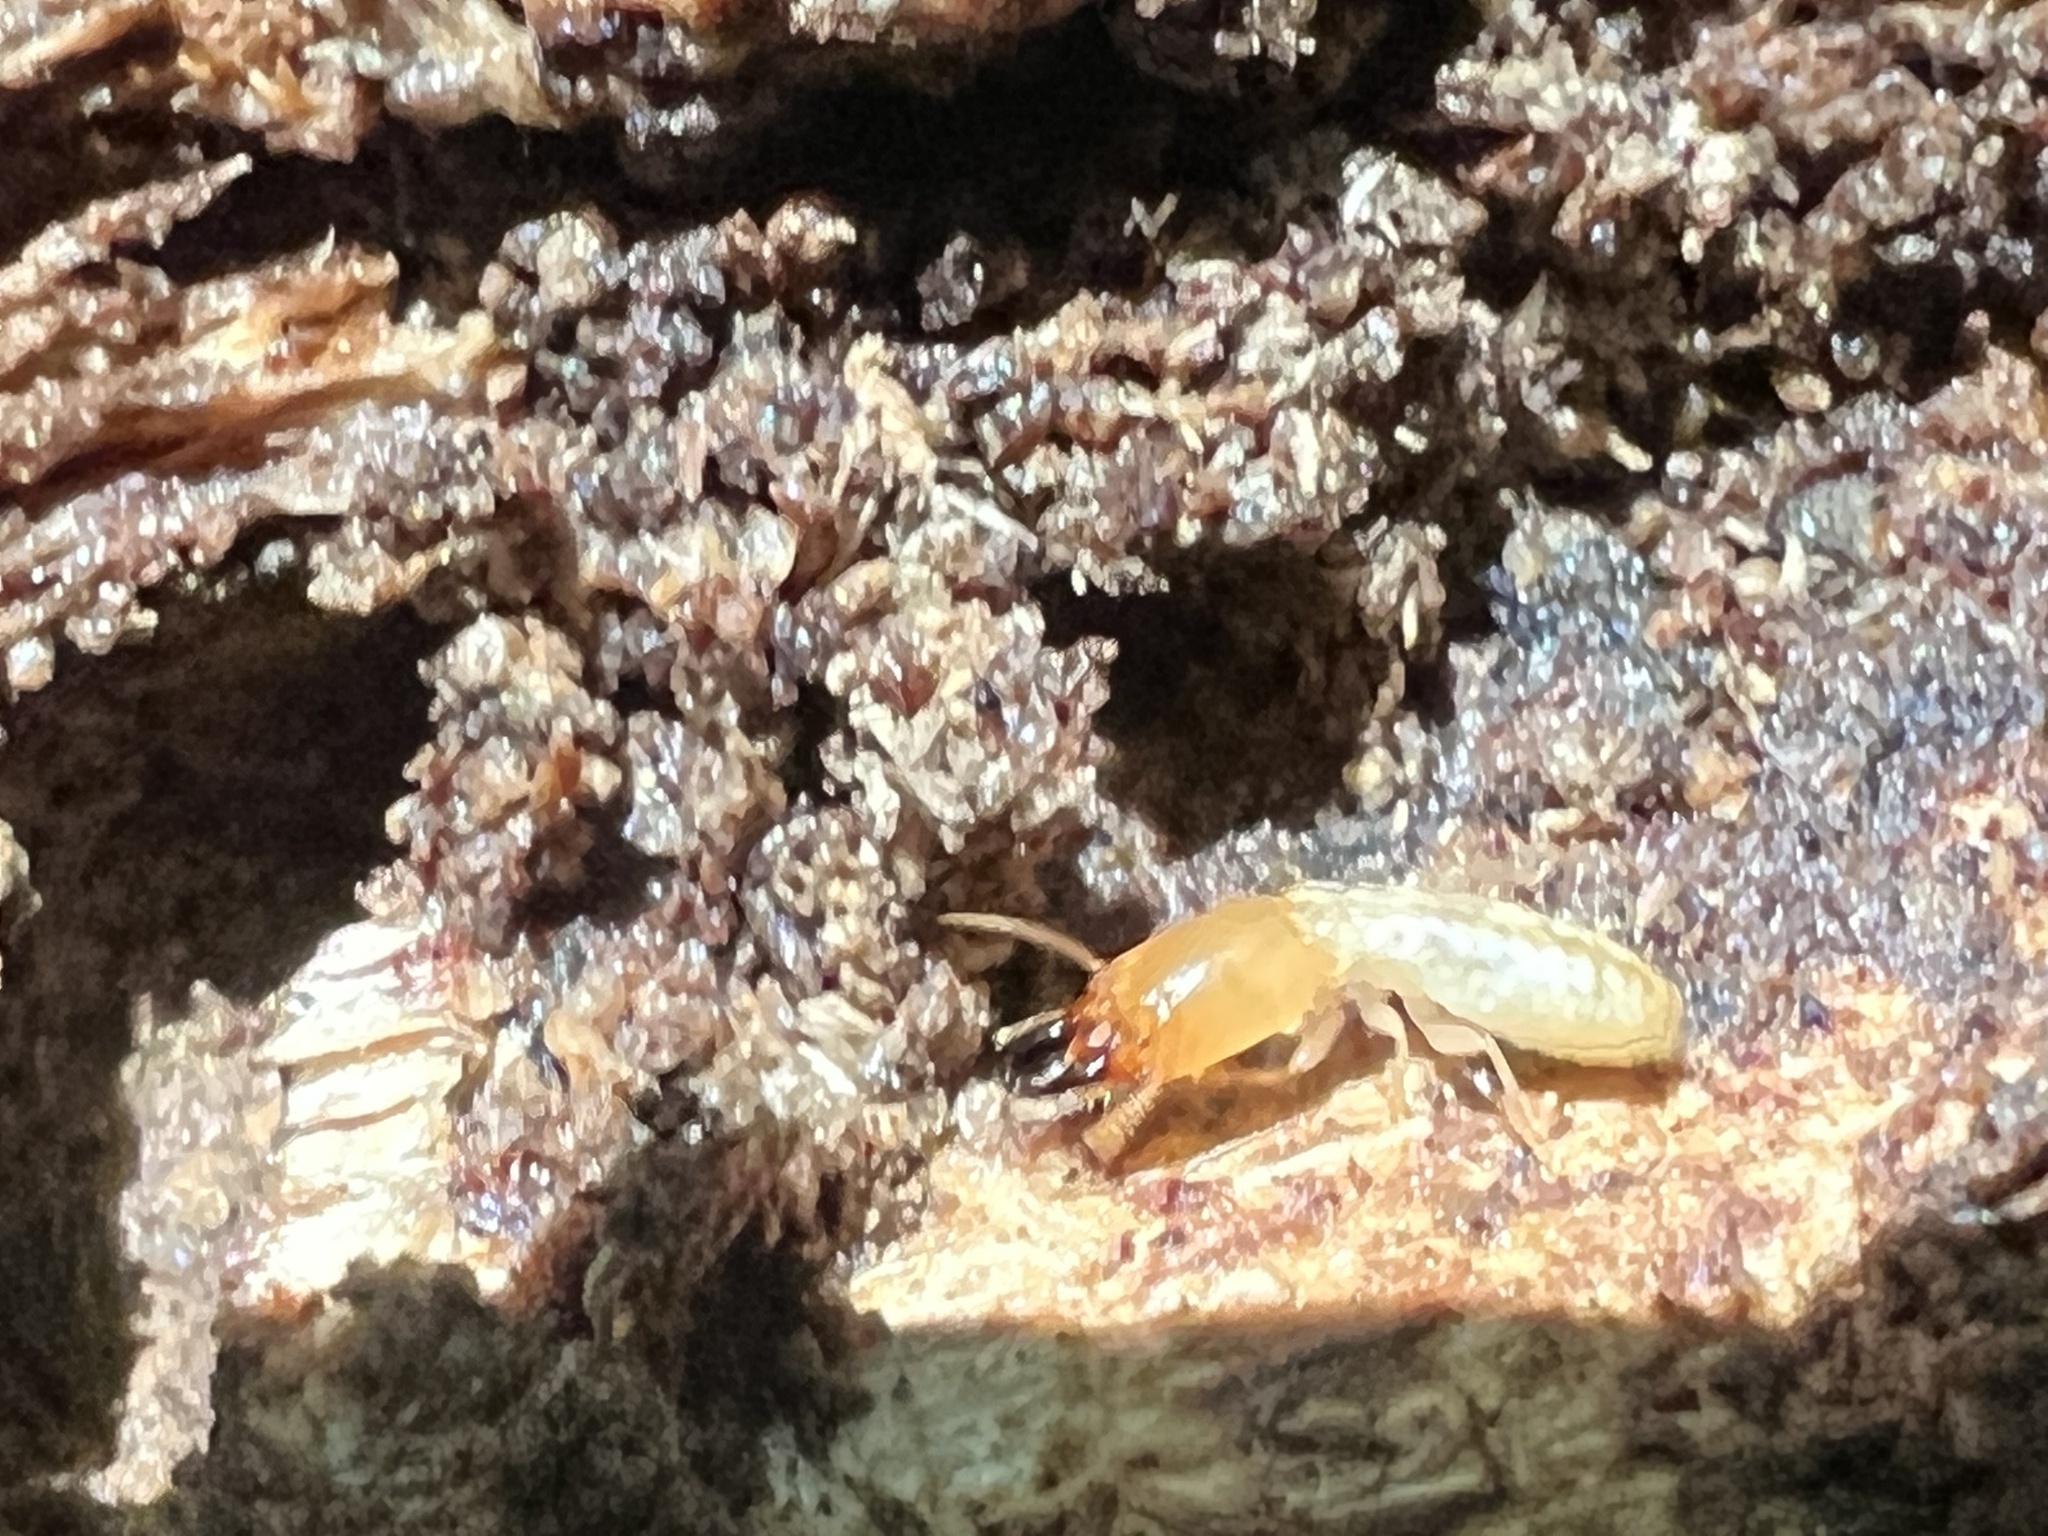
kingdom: Animalia
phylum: Arthropoda
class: Insecta
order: Blattodea
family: Rhinotermitidae
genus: Reticulitermes
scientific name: Reticulitermes flavipes
